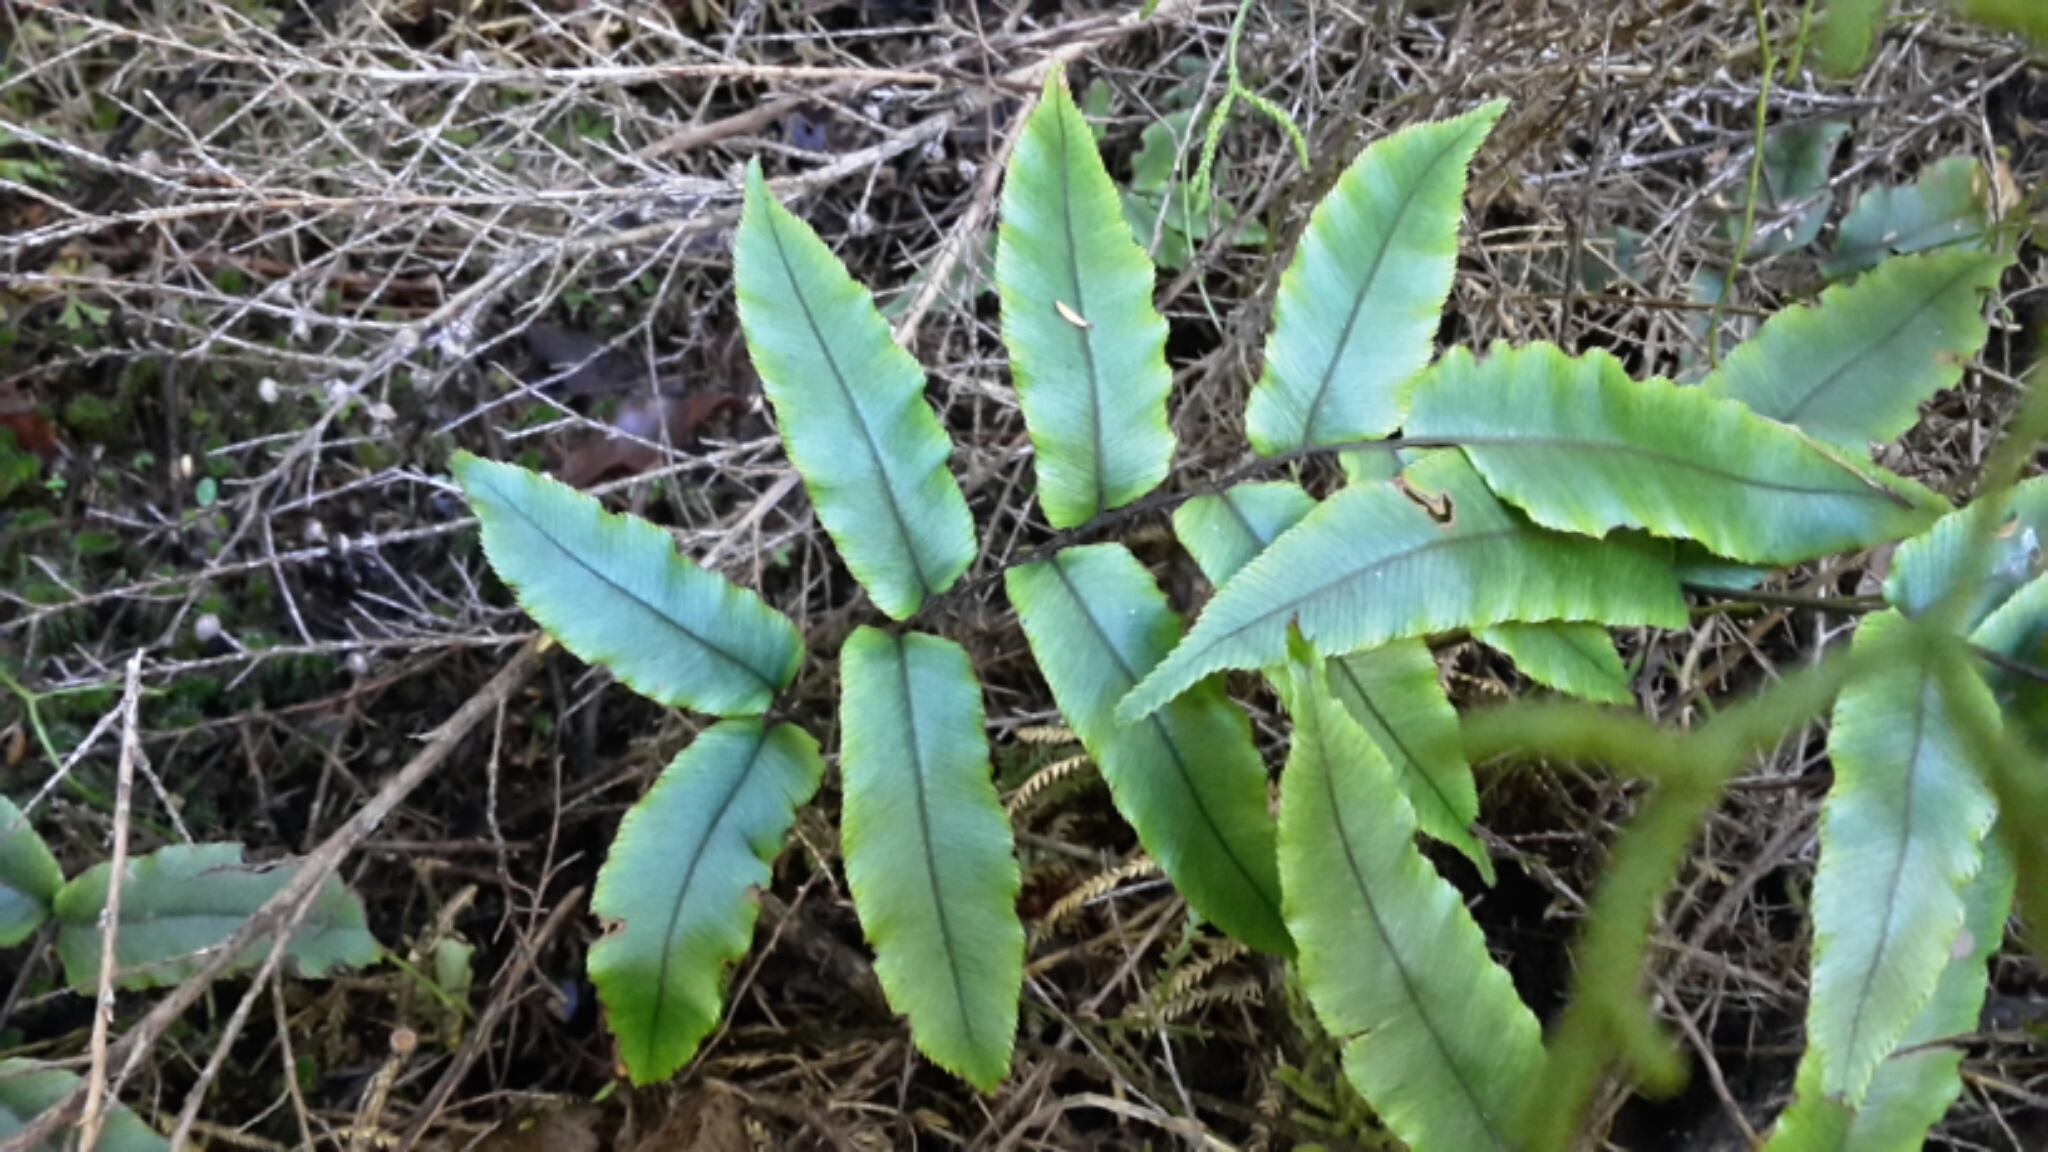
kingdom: Plantae
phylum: Tracheophyta
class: Polypodiopsida
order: Polypodiales
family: Blechnaceae
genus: Parablechnum
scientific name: Parablechnum procerum
